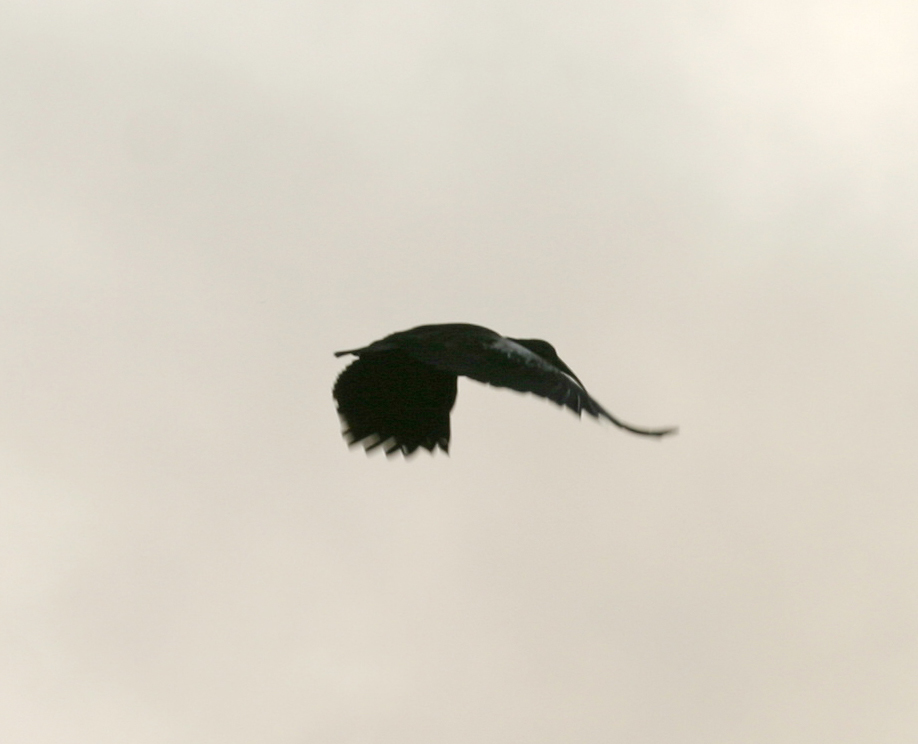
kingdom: Animalia
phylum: Chordata
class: Aves
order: Pelecaniformes
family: Threskiornithidae
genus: Bostrychia
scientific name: Bostrychia carunculata
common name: Wattled ibis
